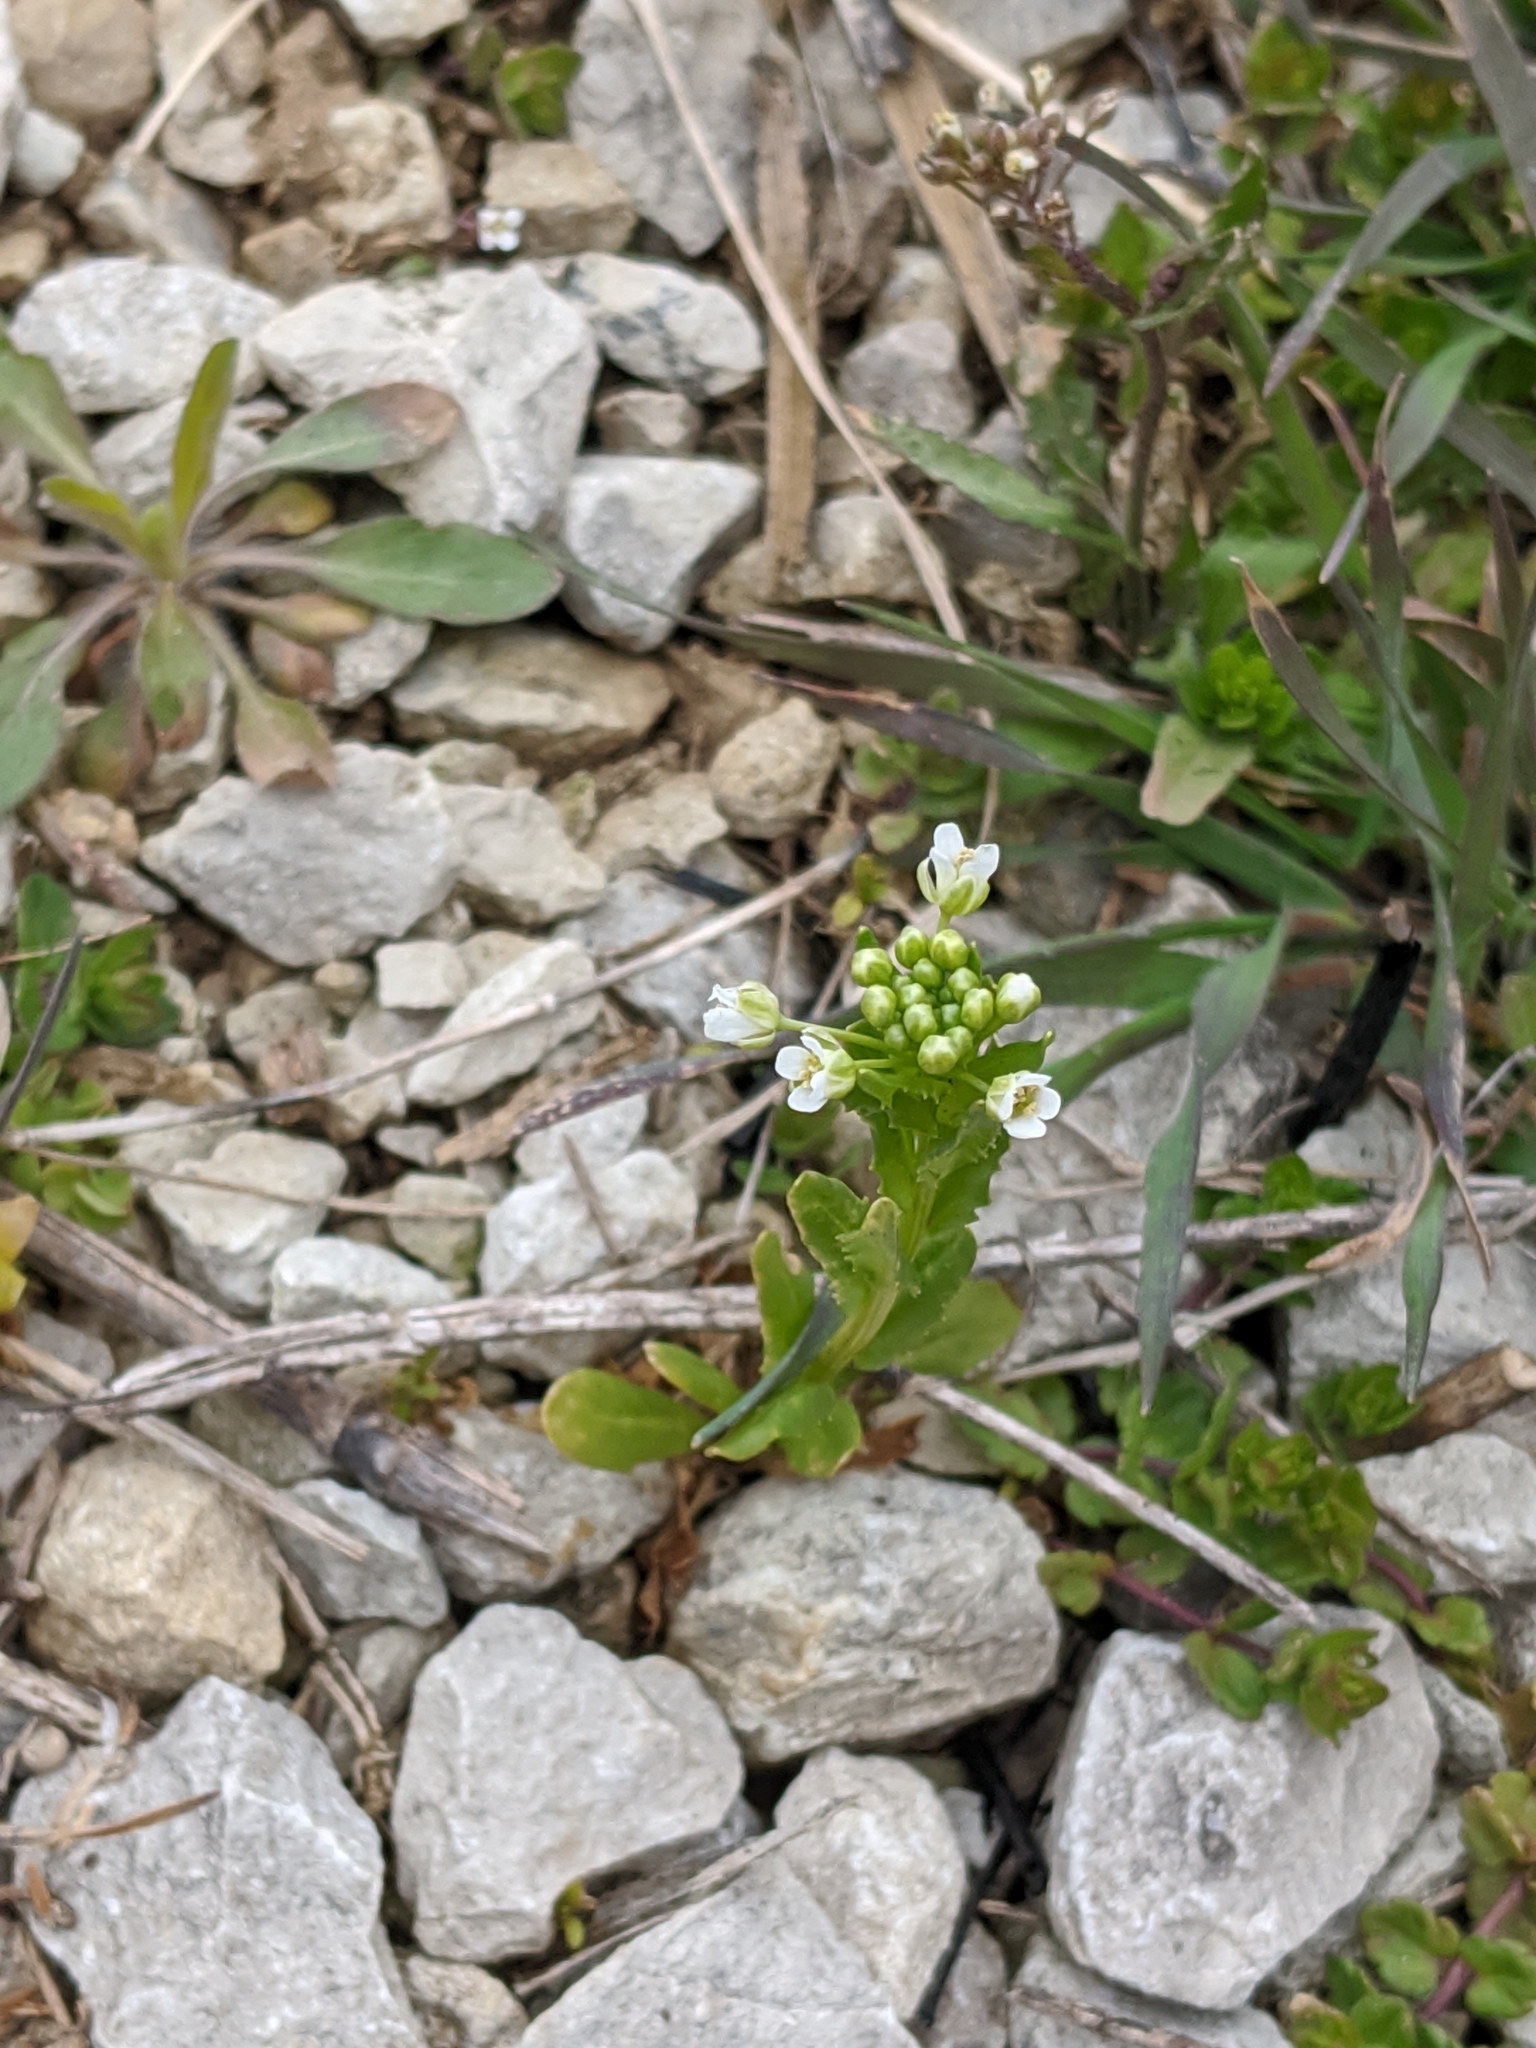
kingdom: Plantae
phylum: Tracheophyta
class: Magnoliopsida
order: Brassicales
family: Brassicaceae
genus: Thlaspi
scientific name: Thlaspi arvense
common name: Field pennycress
